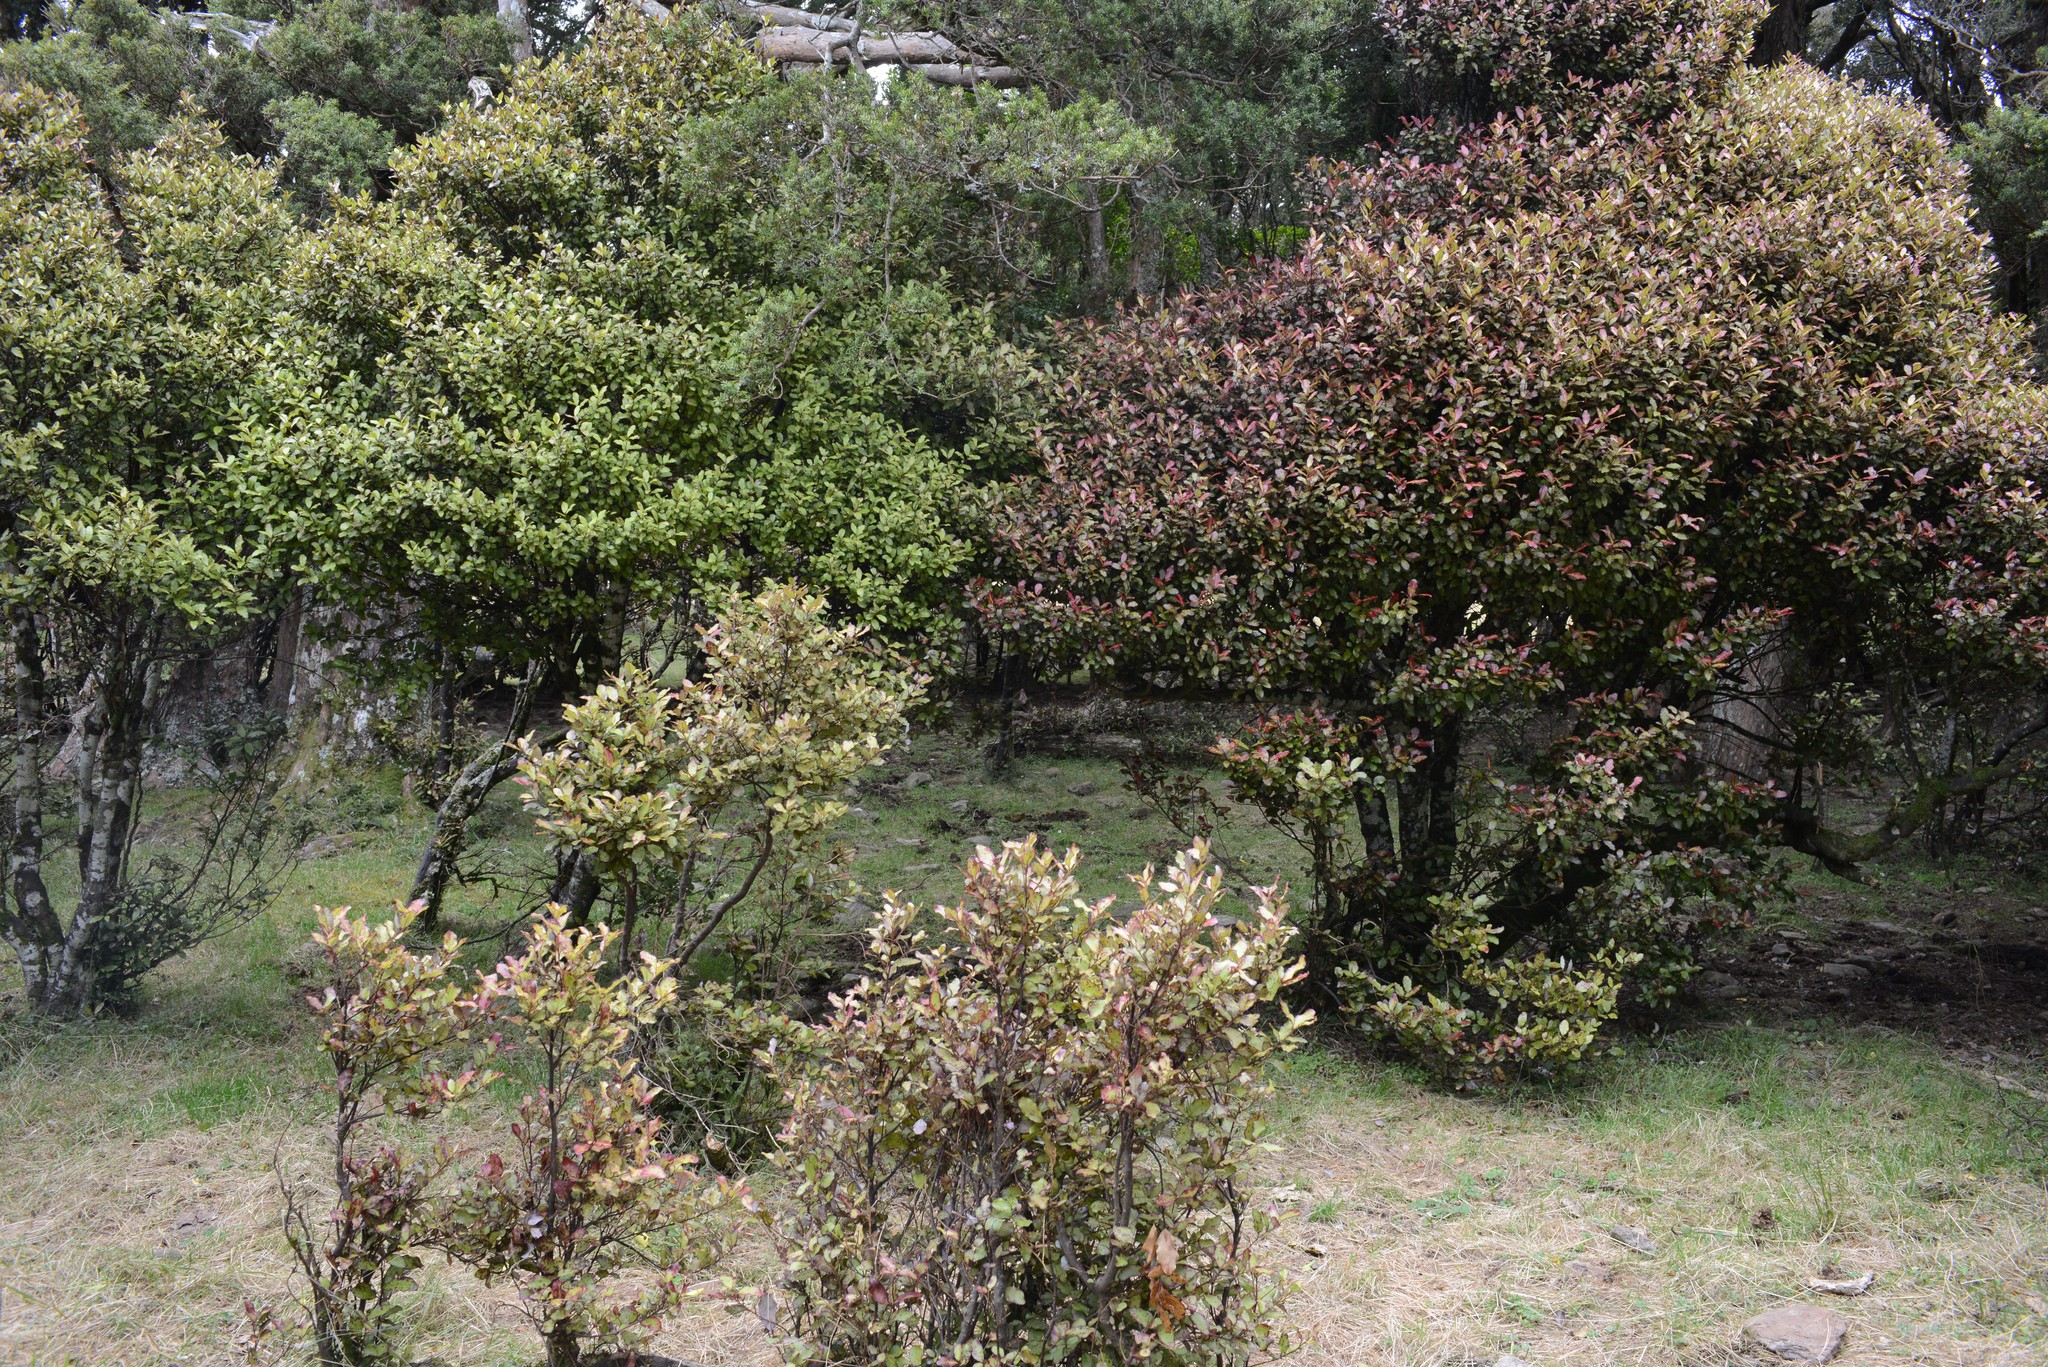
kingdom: Plantae
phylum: Tracheophyta
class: Magnoliopsida
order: Canellales
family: Winteraceae
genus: Pseudowintera
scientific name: Pseudowintera colorata
